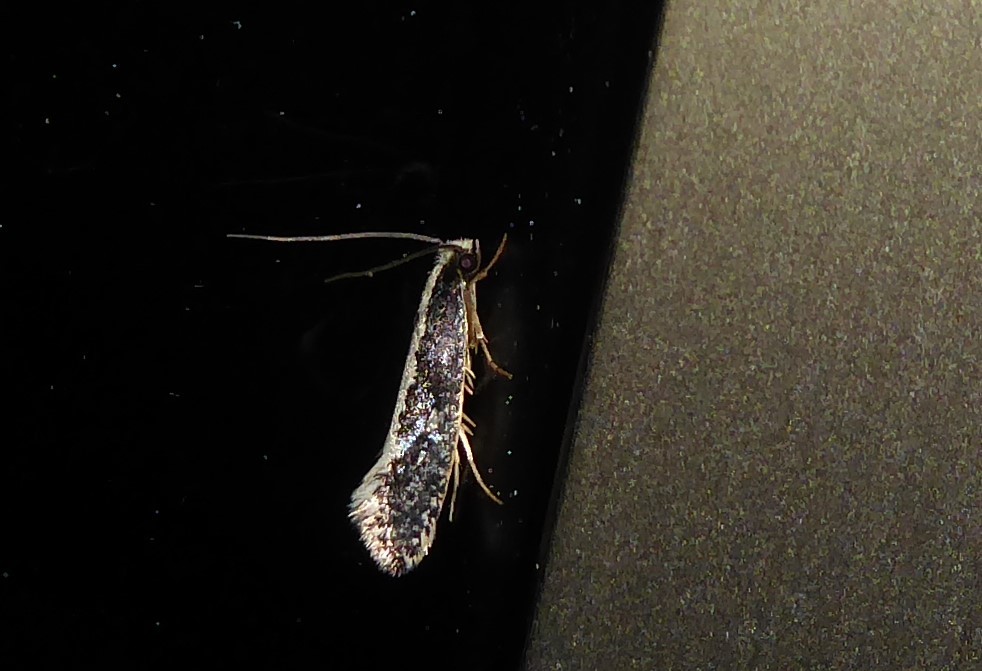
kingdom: Animalia
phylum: Arthropoda
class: Insecta
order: Lepidoptera
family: Tineidae
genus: Monopis
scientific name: Monopis ethelella
